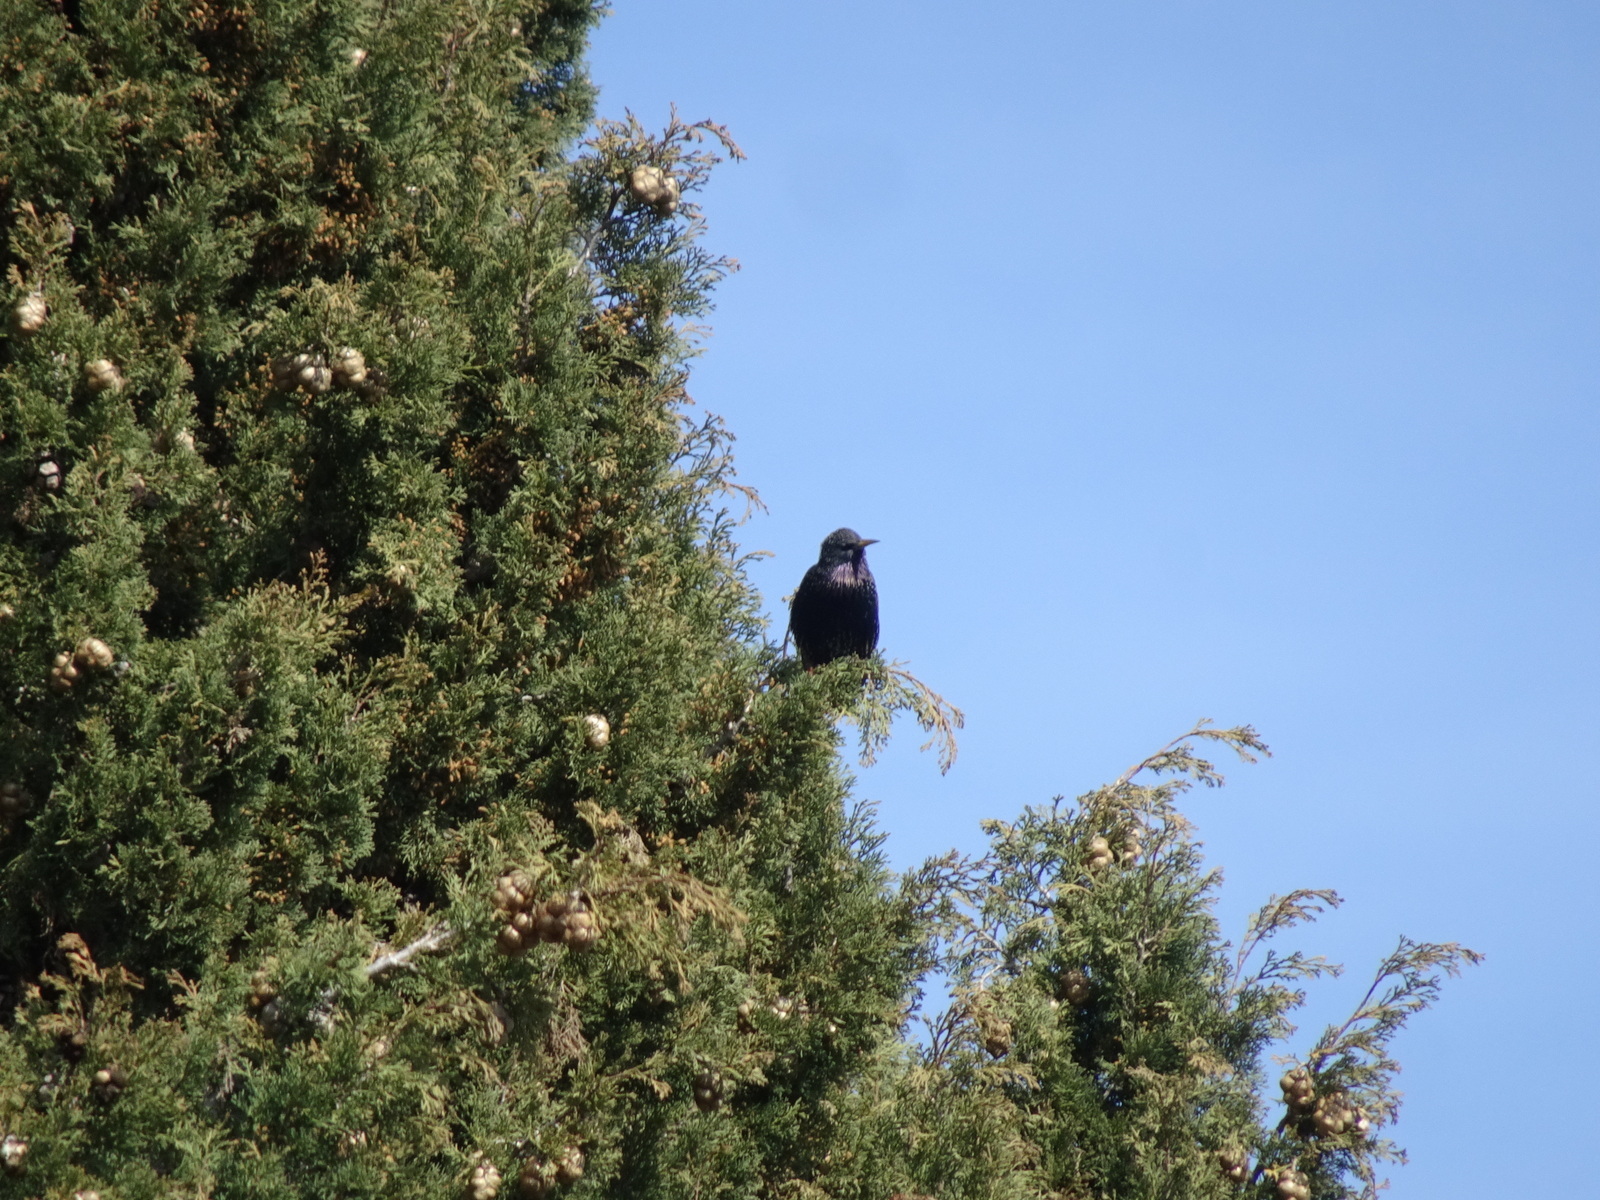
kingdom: Animalia
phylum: Chordata
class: Aves
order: Passeriformes
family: Sturnidae
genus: Sturnus
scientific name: Sturnus vulgaris
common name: Common starling
